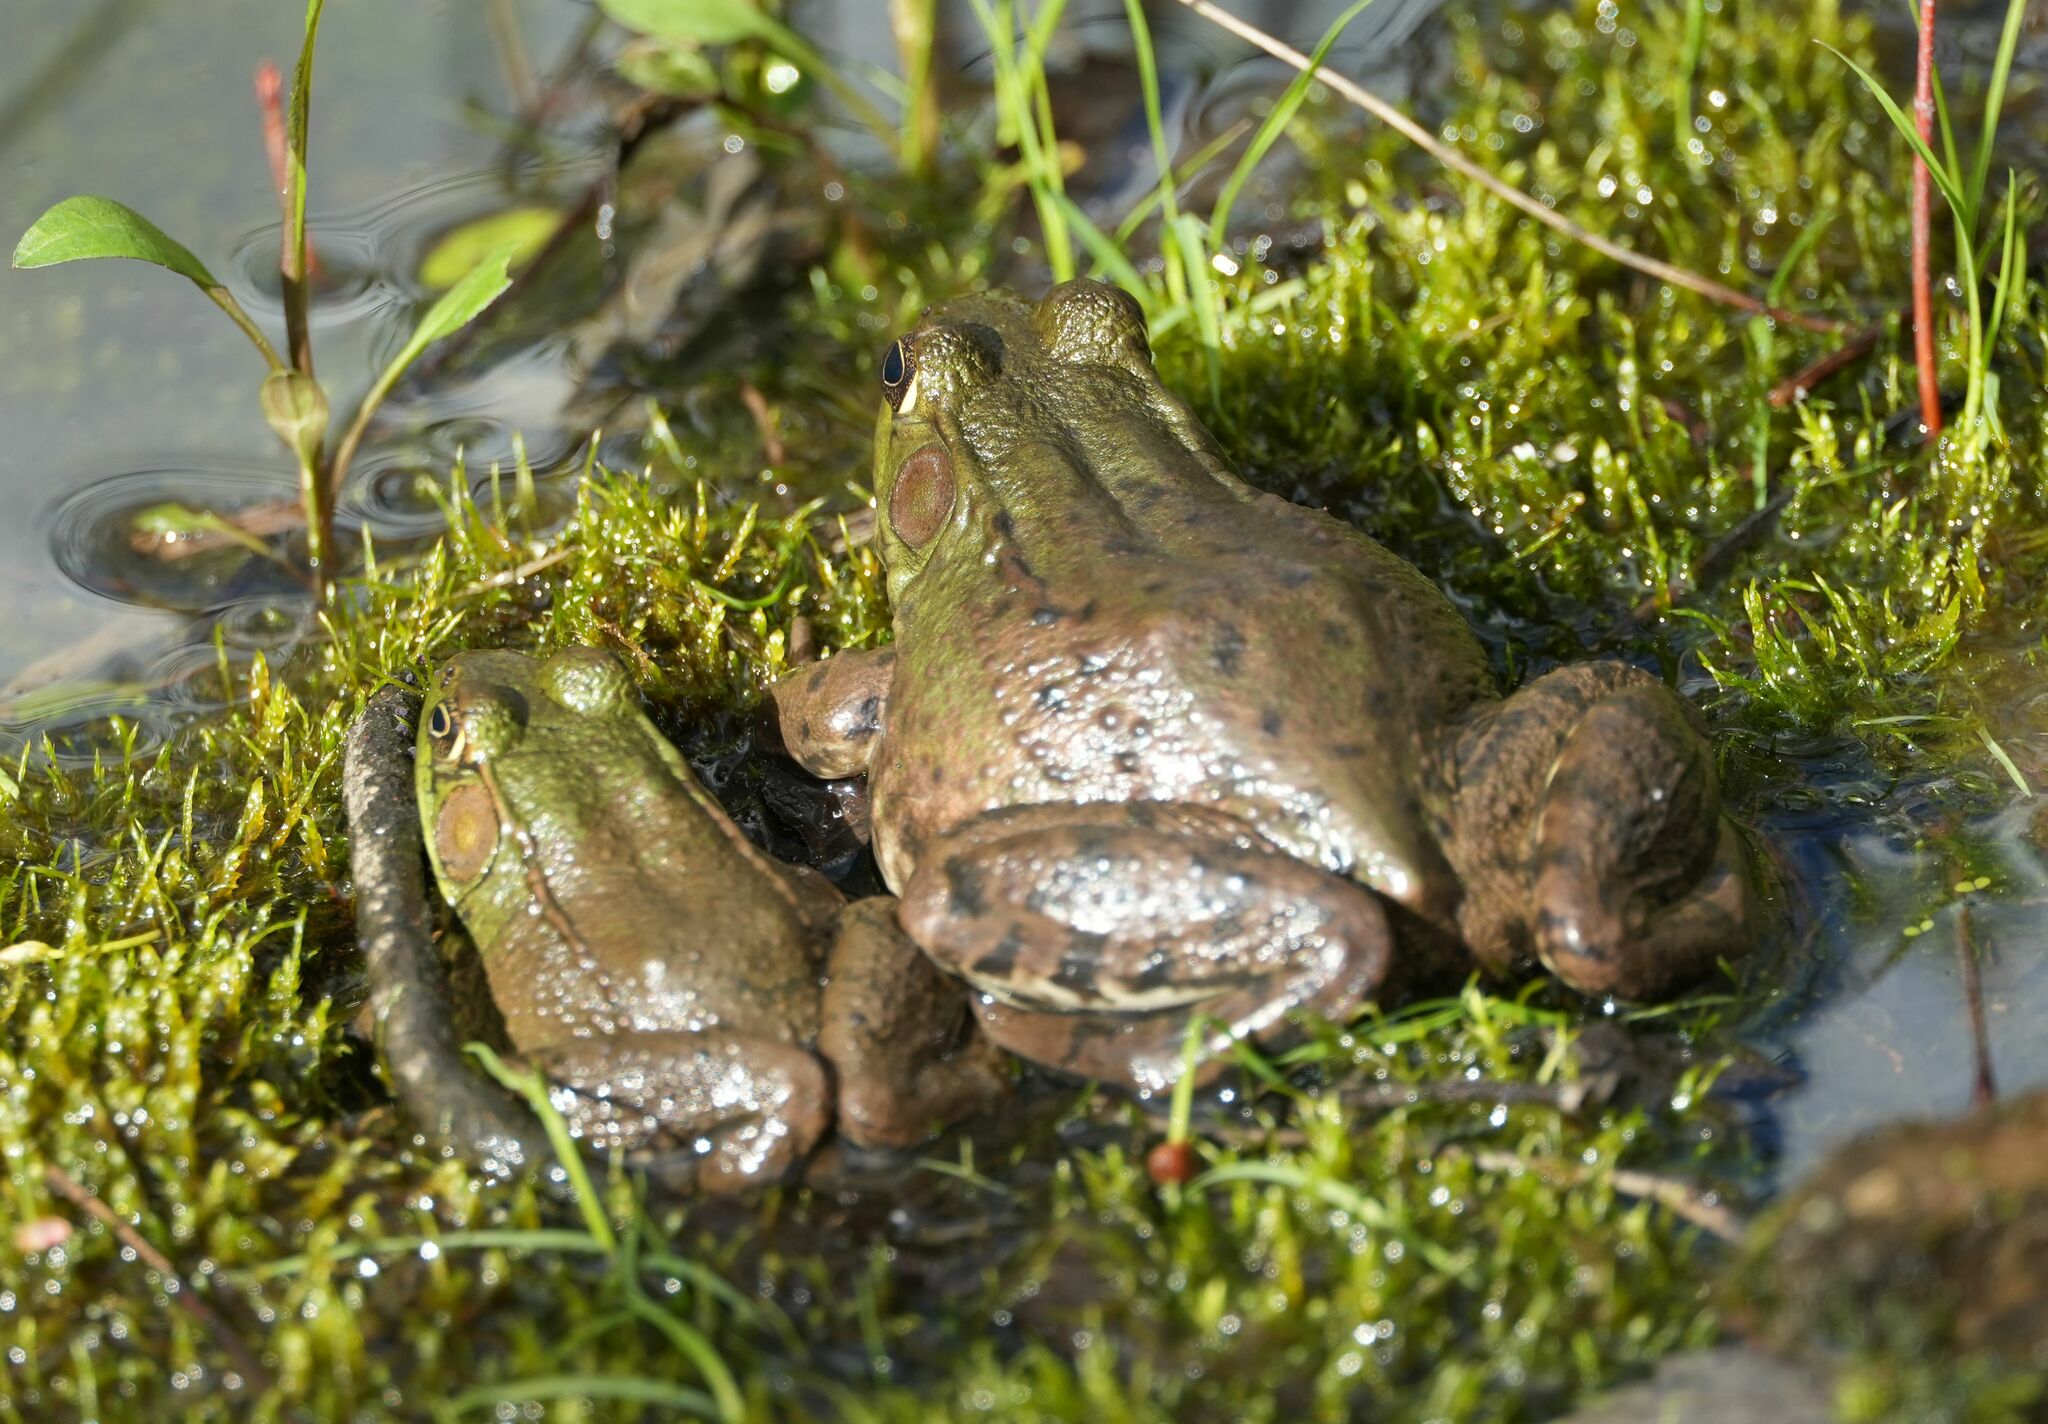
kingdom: Animalia
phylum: Chordata
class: Amphibia
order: Anura
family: Ranidae
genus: Lithobates
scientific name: Lithobates clamitans
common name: Green frog
